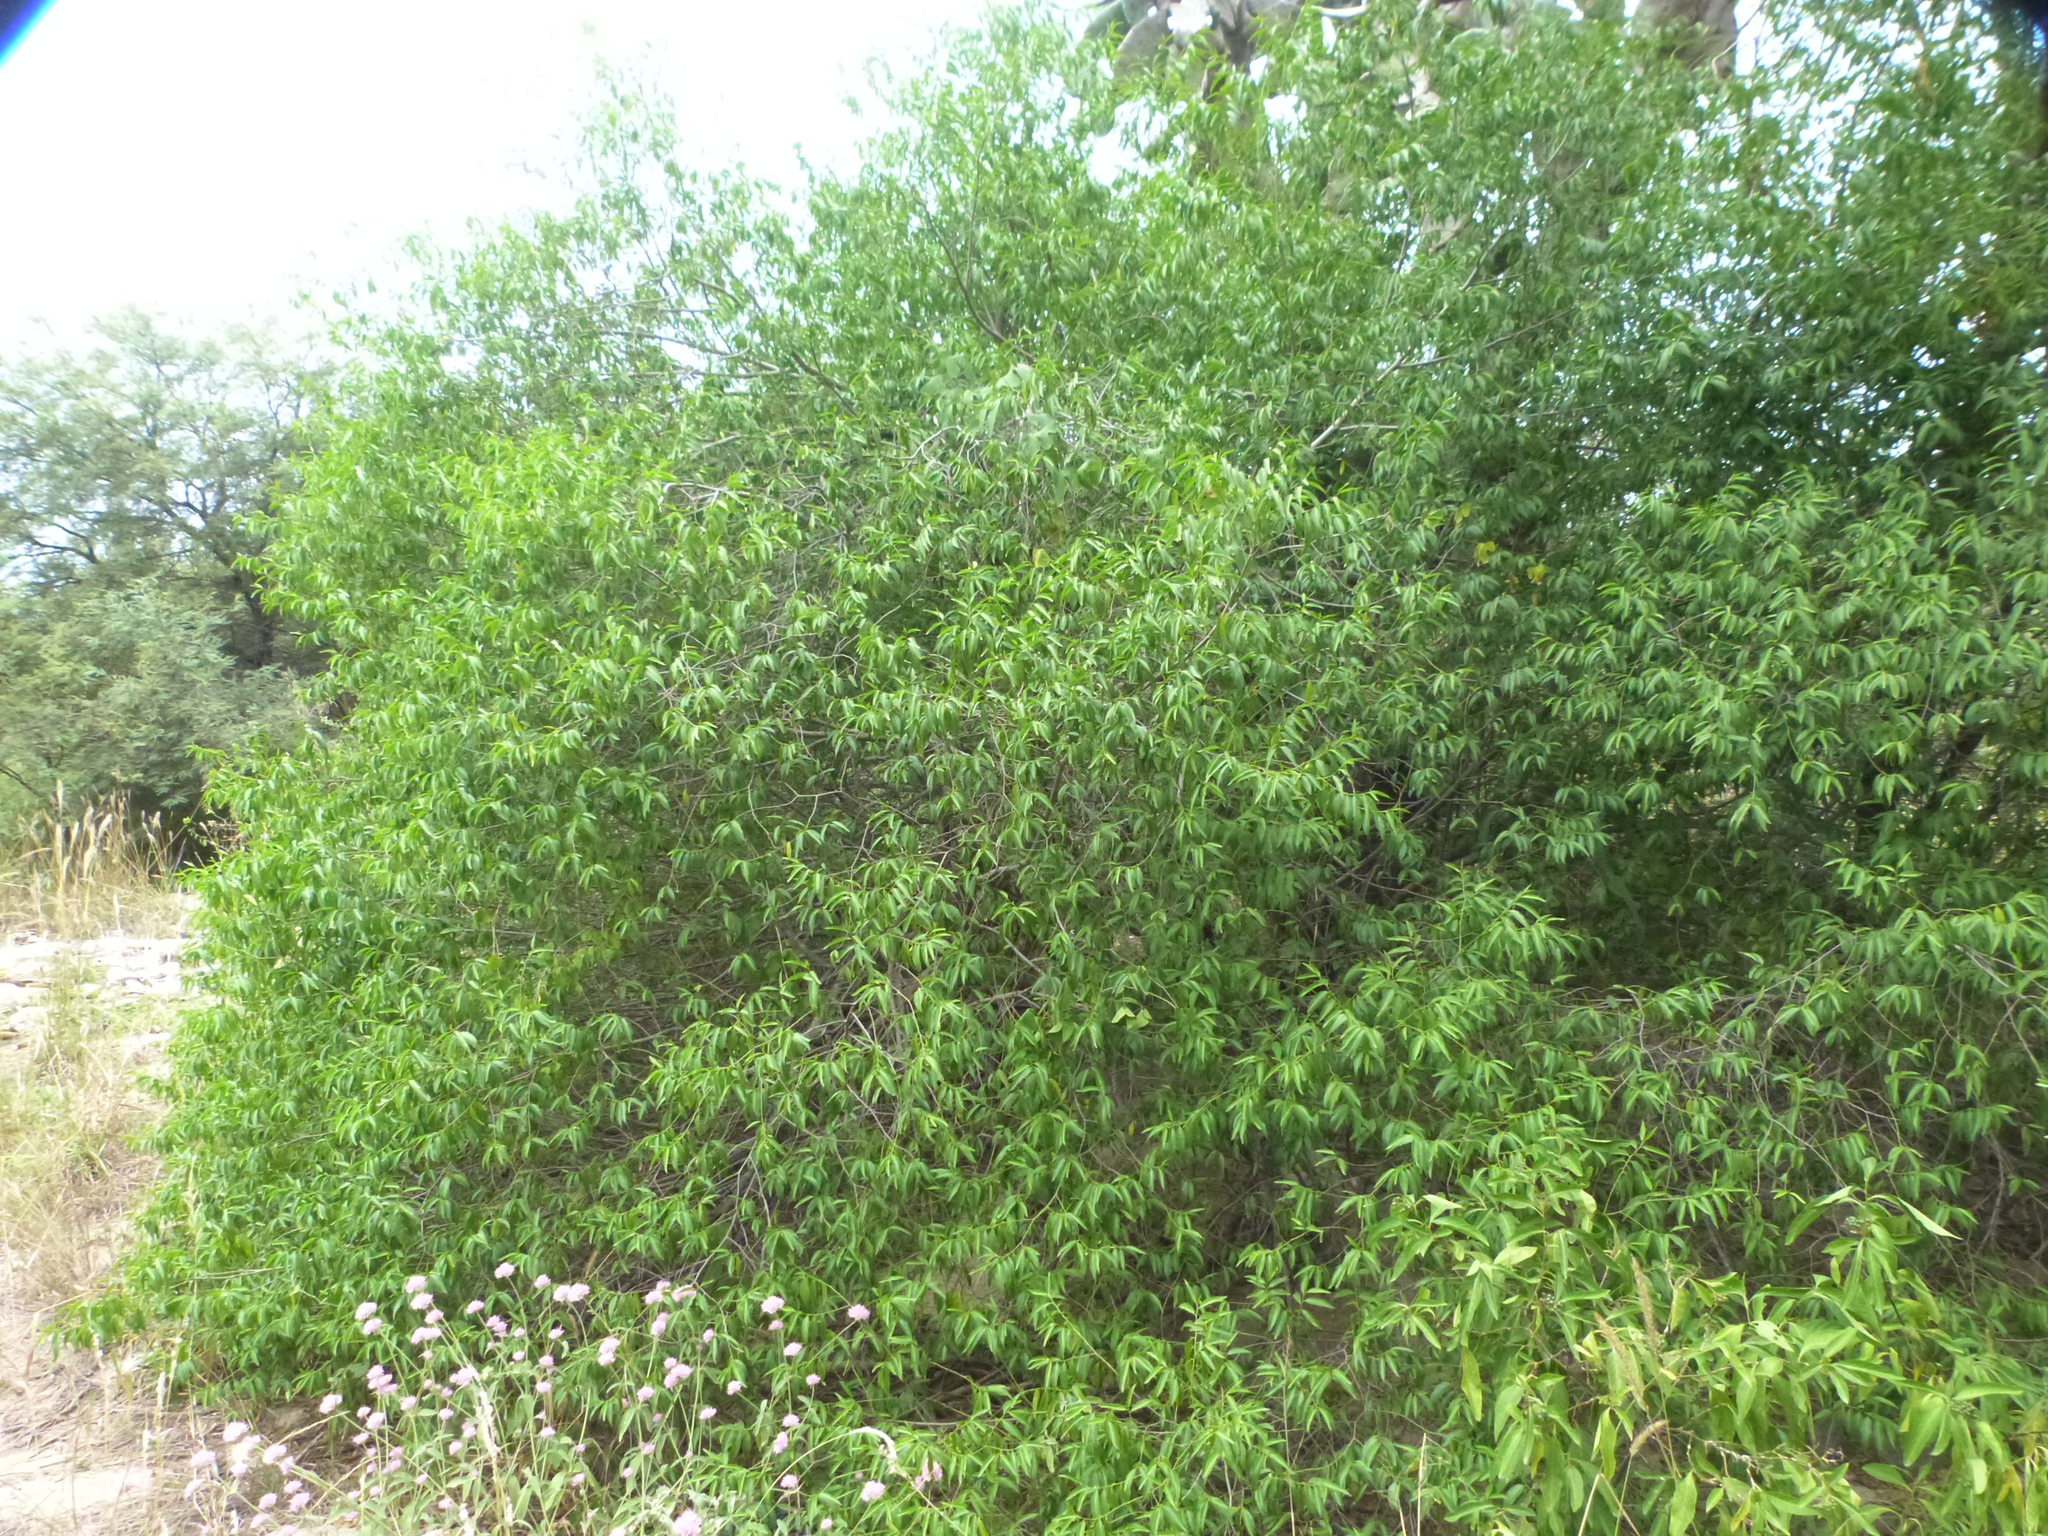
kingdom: Plantae
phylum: Tracheophyta
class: Magnoliopsida
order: Gentianales
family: Apocynaceae
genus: Vallesia
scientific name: Vallesia glabra
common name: Pearlberry
